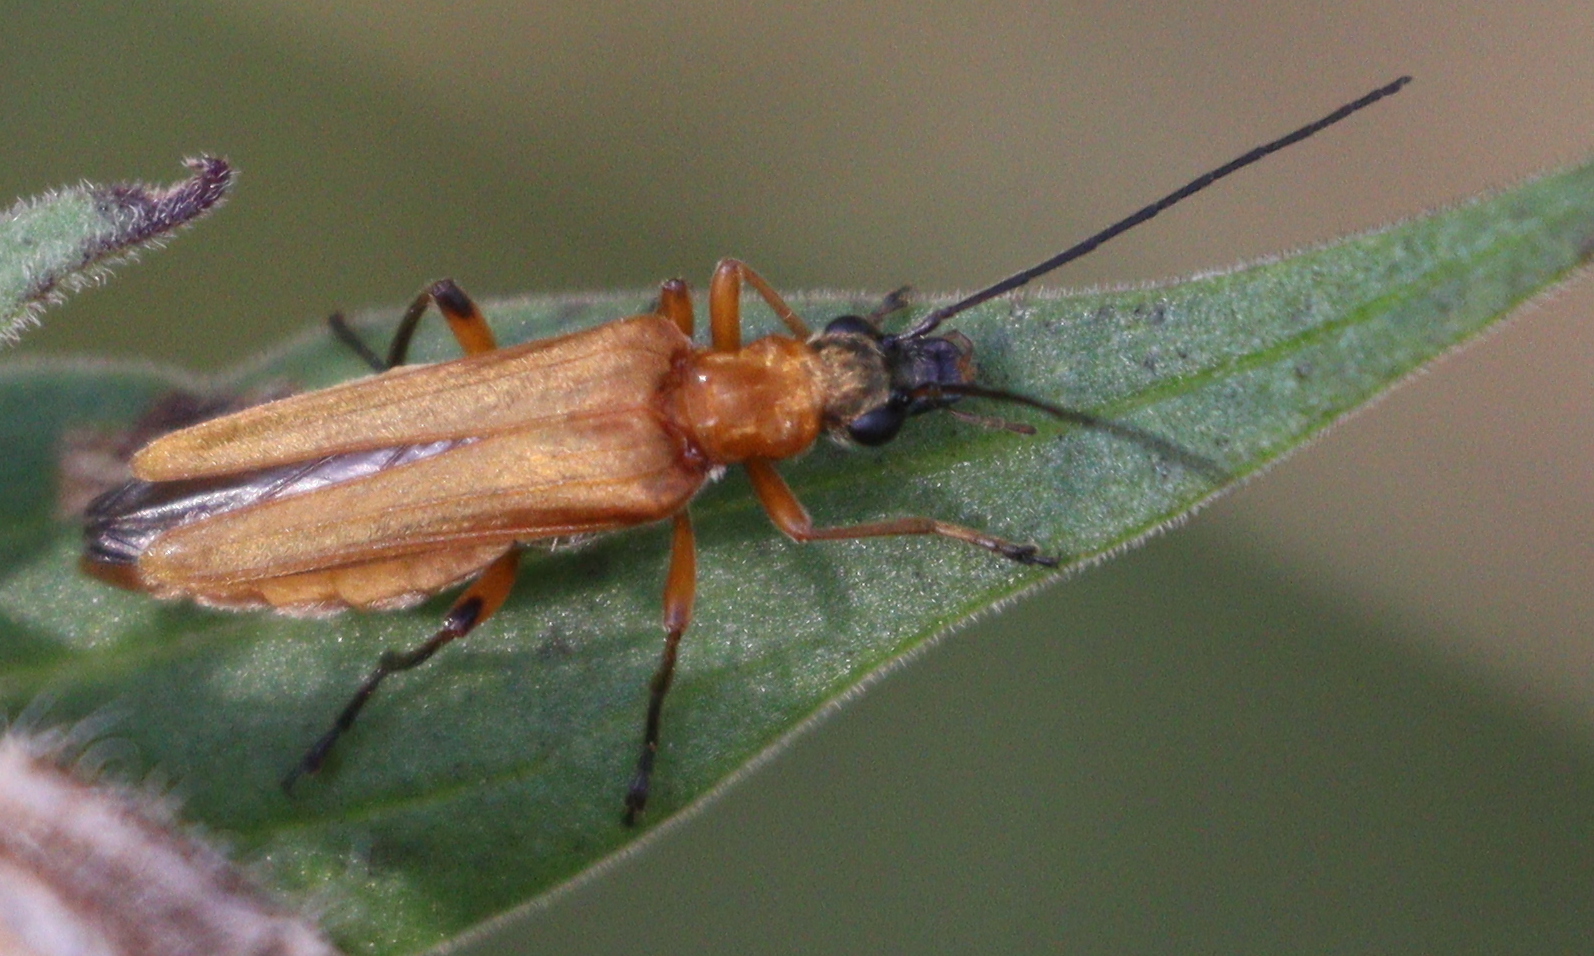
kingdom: Animalia
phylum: Arthropoda
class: Insecta
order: Coleoptera
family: Oedemeridae
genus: Oedemera
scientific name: Oedemera podagrariae
